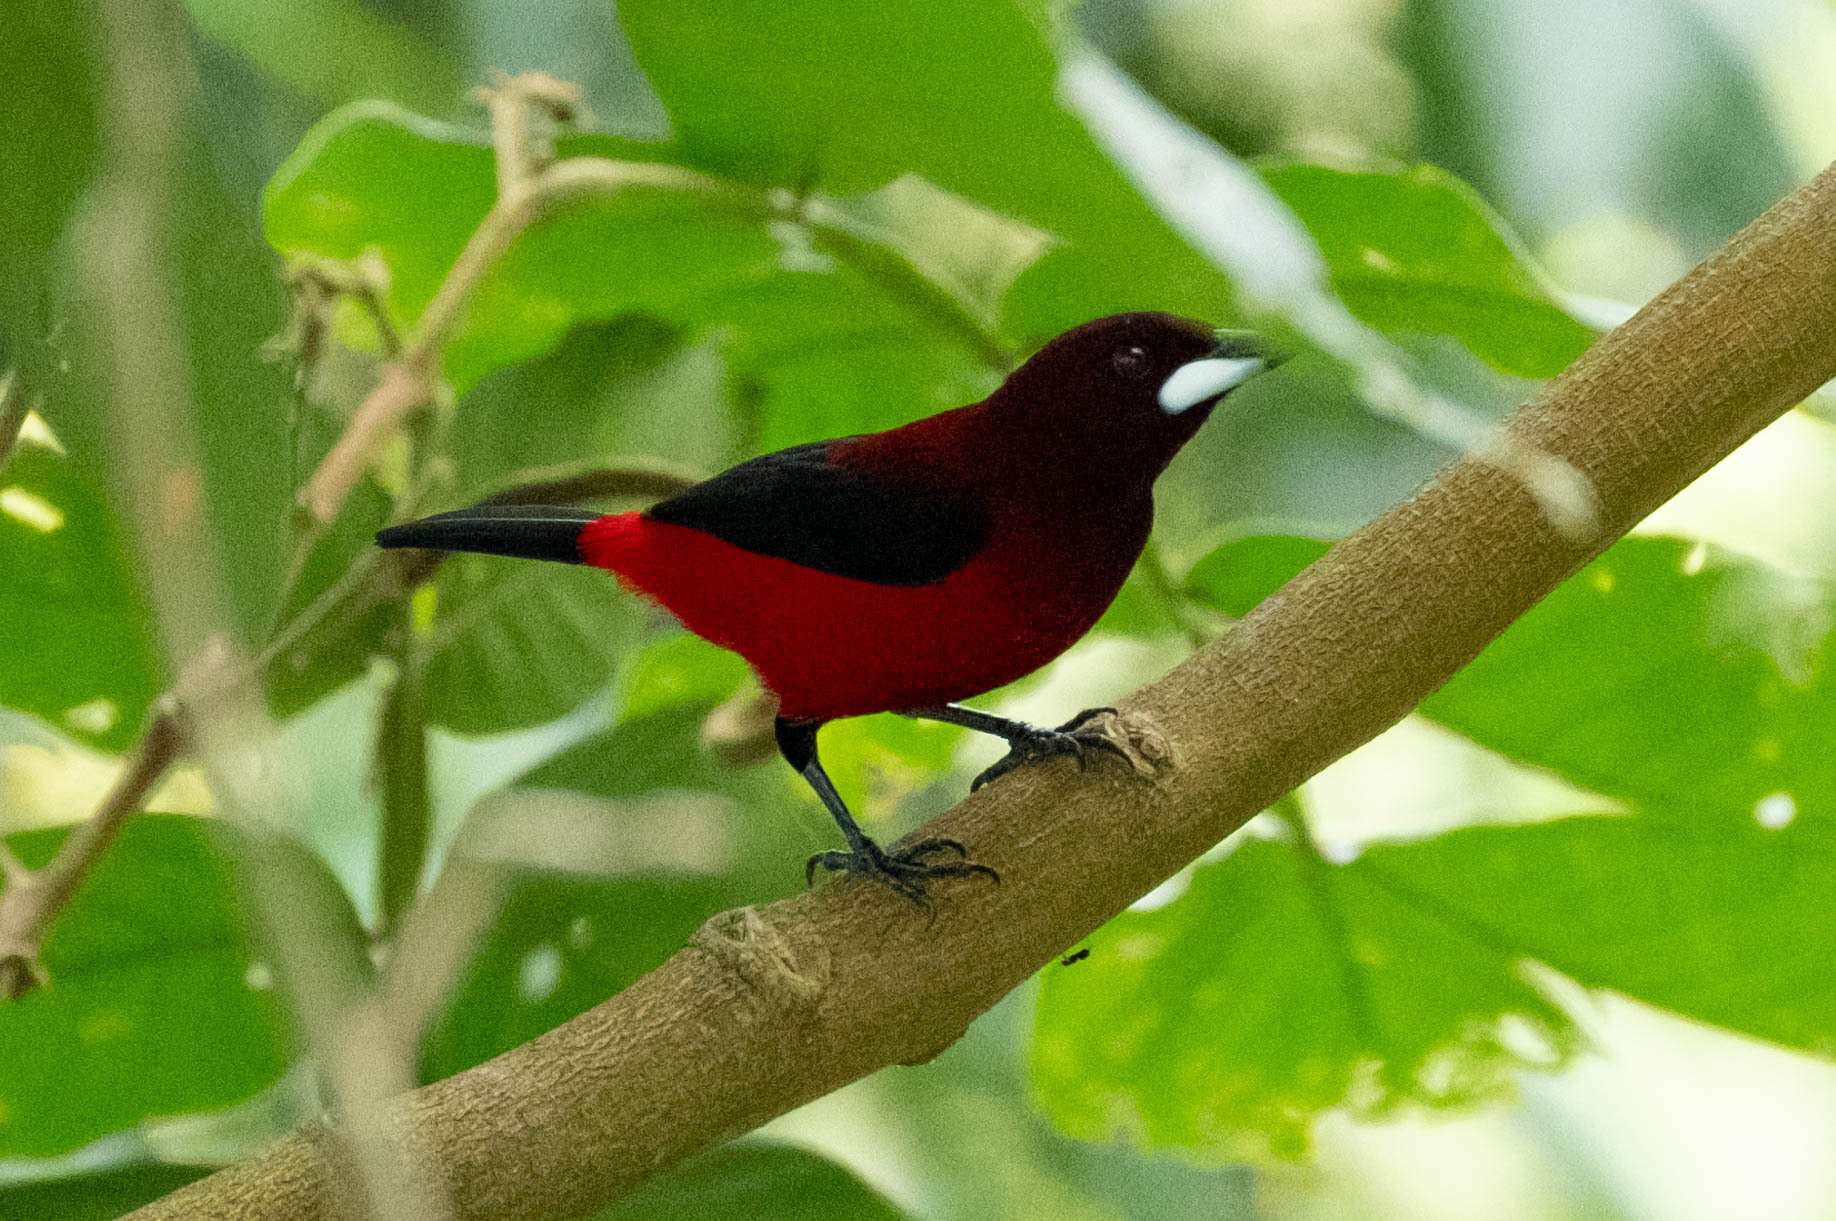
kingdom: Animalia
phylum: Chordata
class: Aves
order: Passeriformes
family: Thraupidae
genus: Ramphocelus
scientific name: Ramphocelus dimidiatus
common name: Crimson-backed tanager
